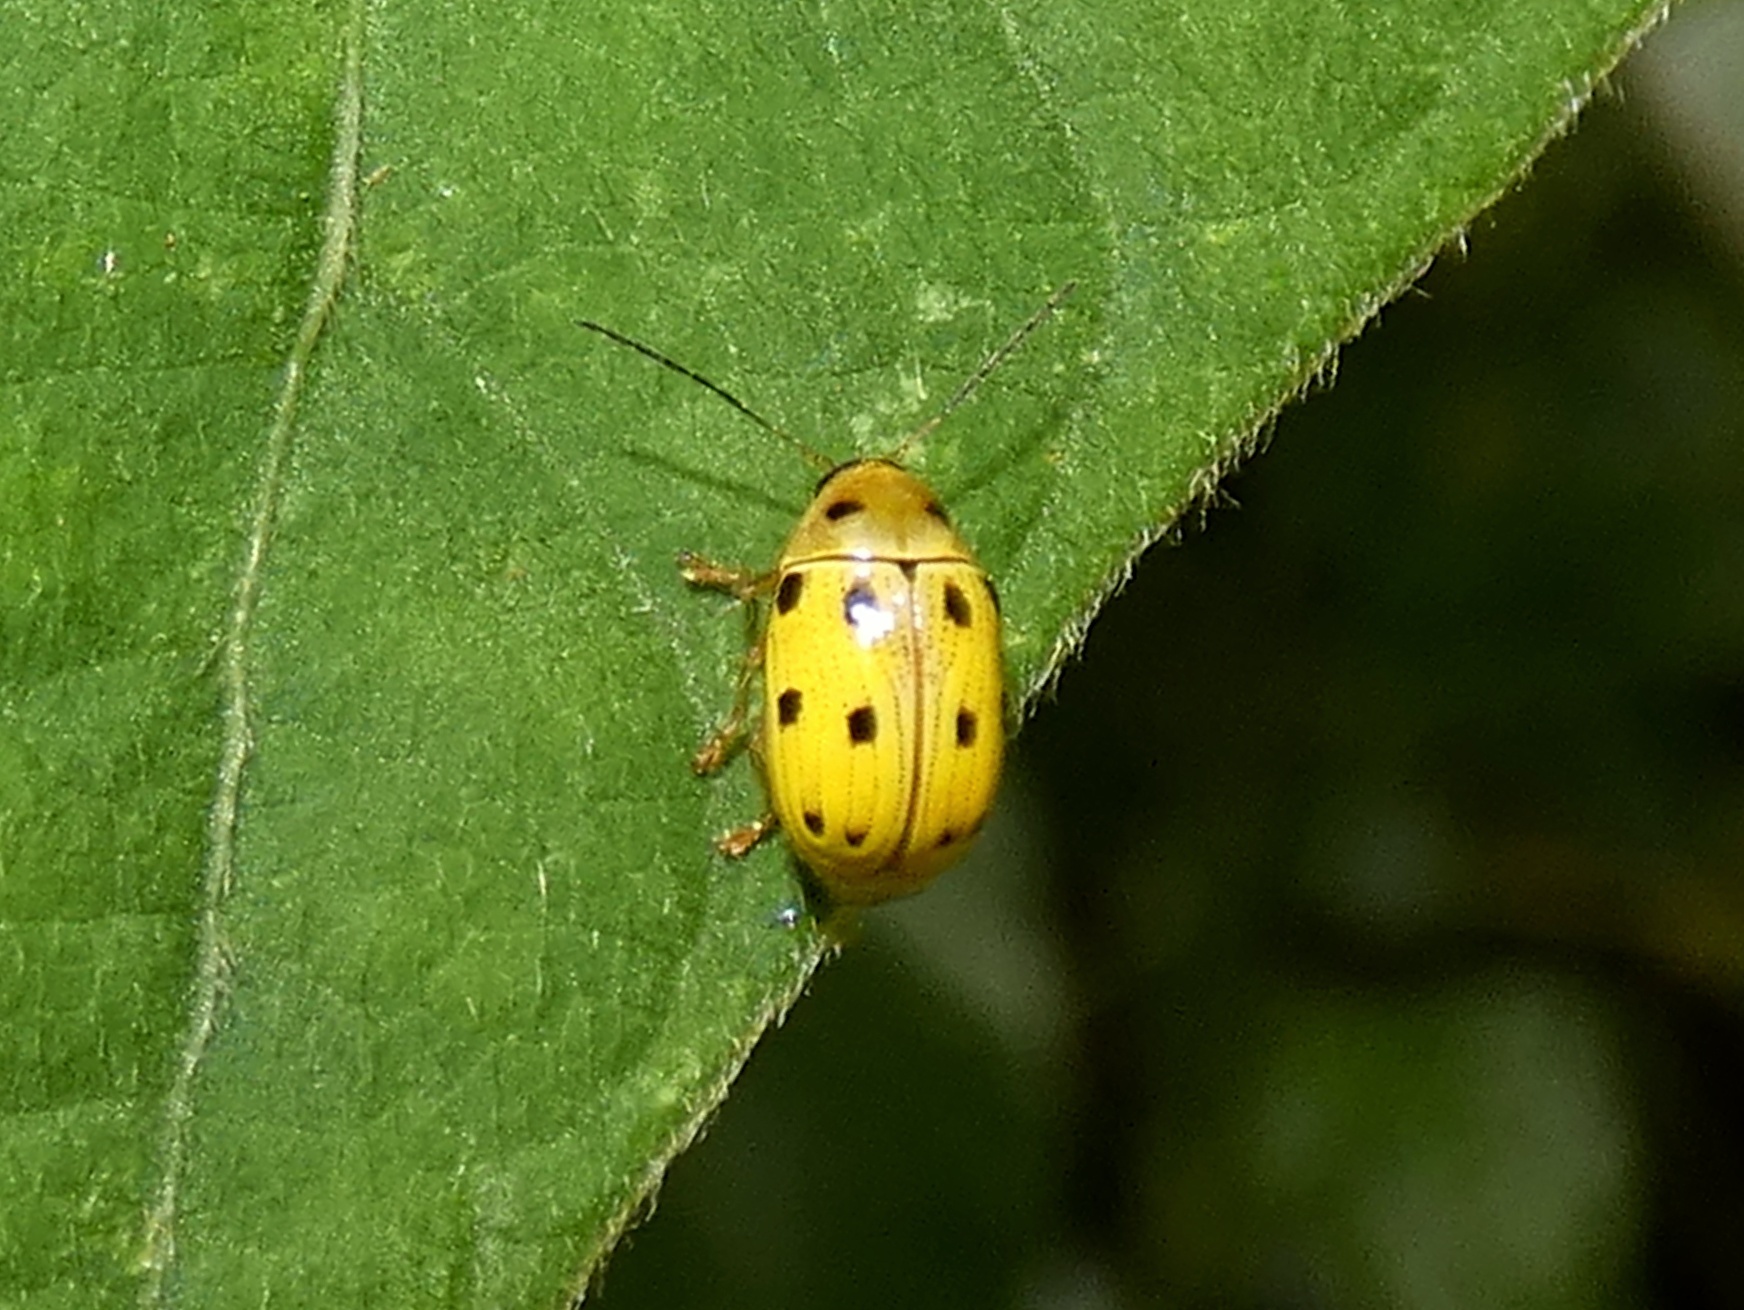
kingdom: Animalia
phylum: Arthropoda
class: Insecta
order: Coleoptera
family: Chrysomelidae
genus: Cryptocephalus
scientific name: Cryptocephalus
